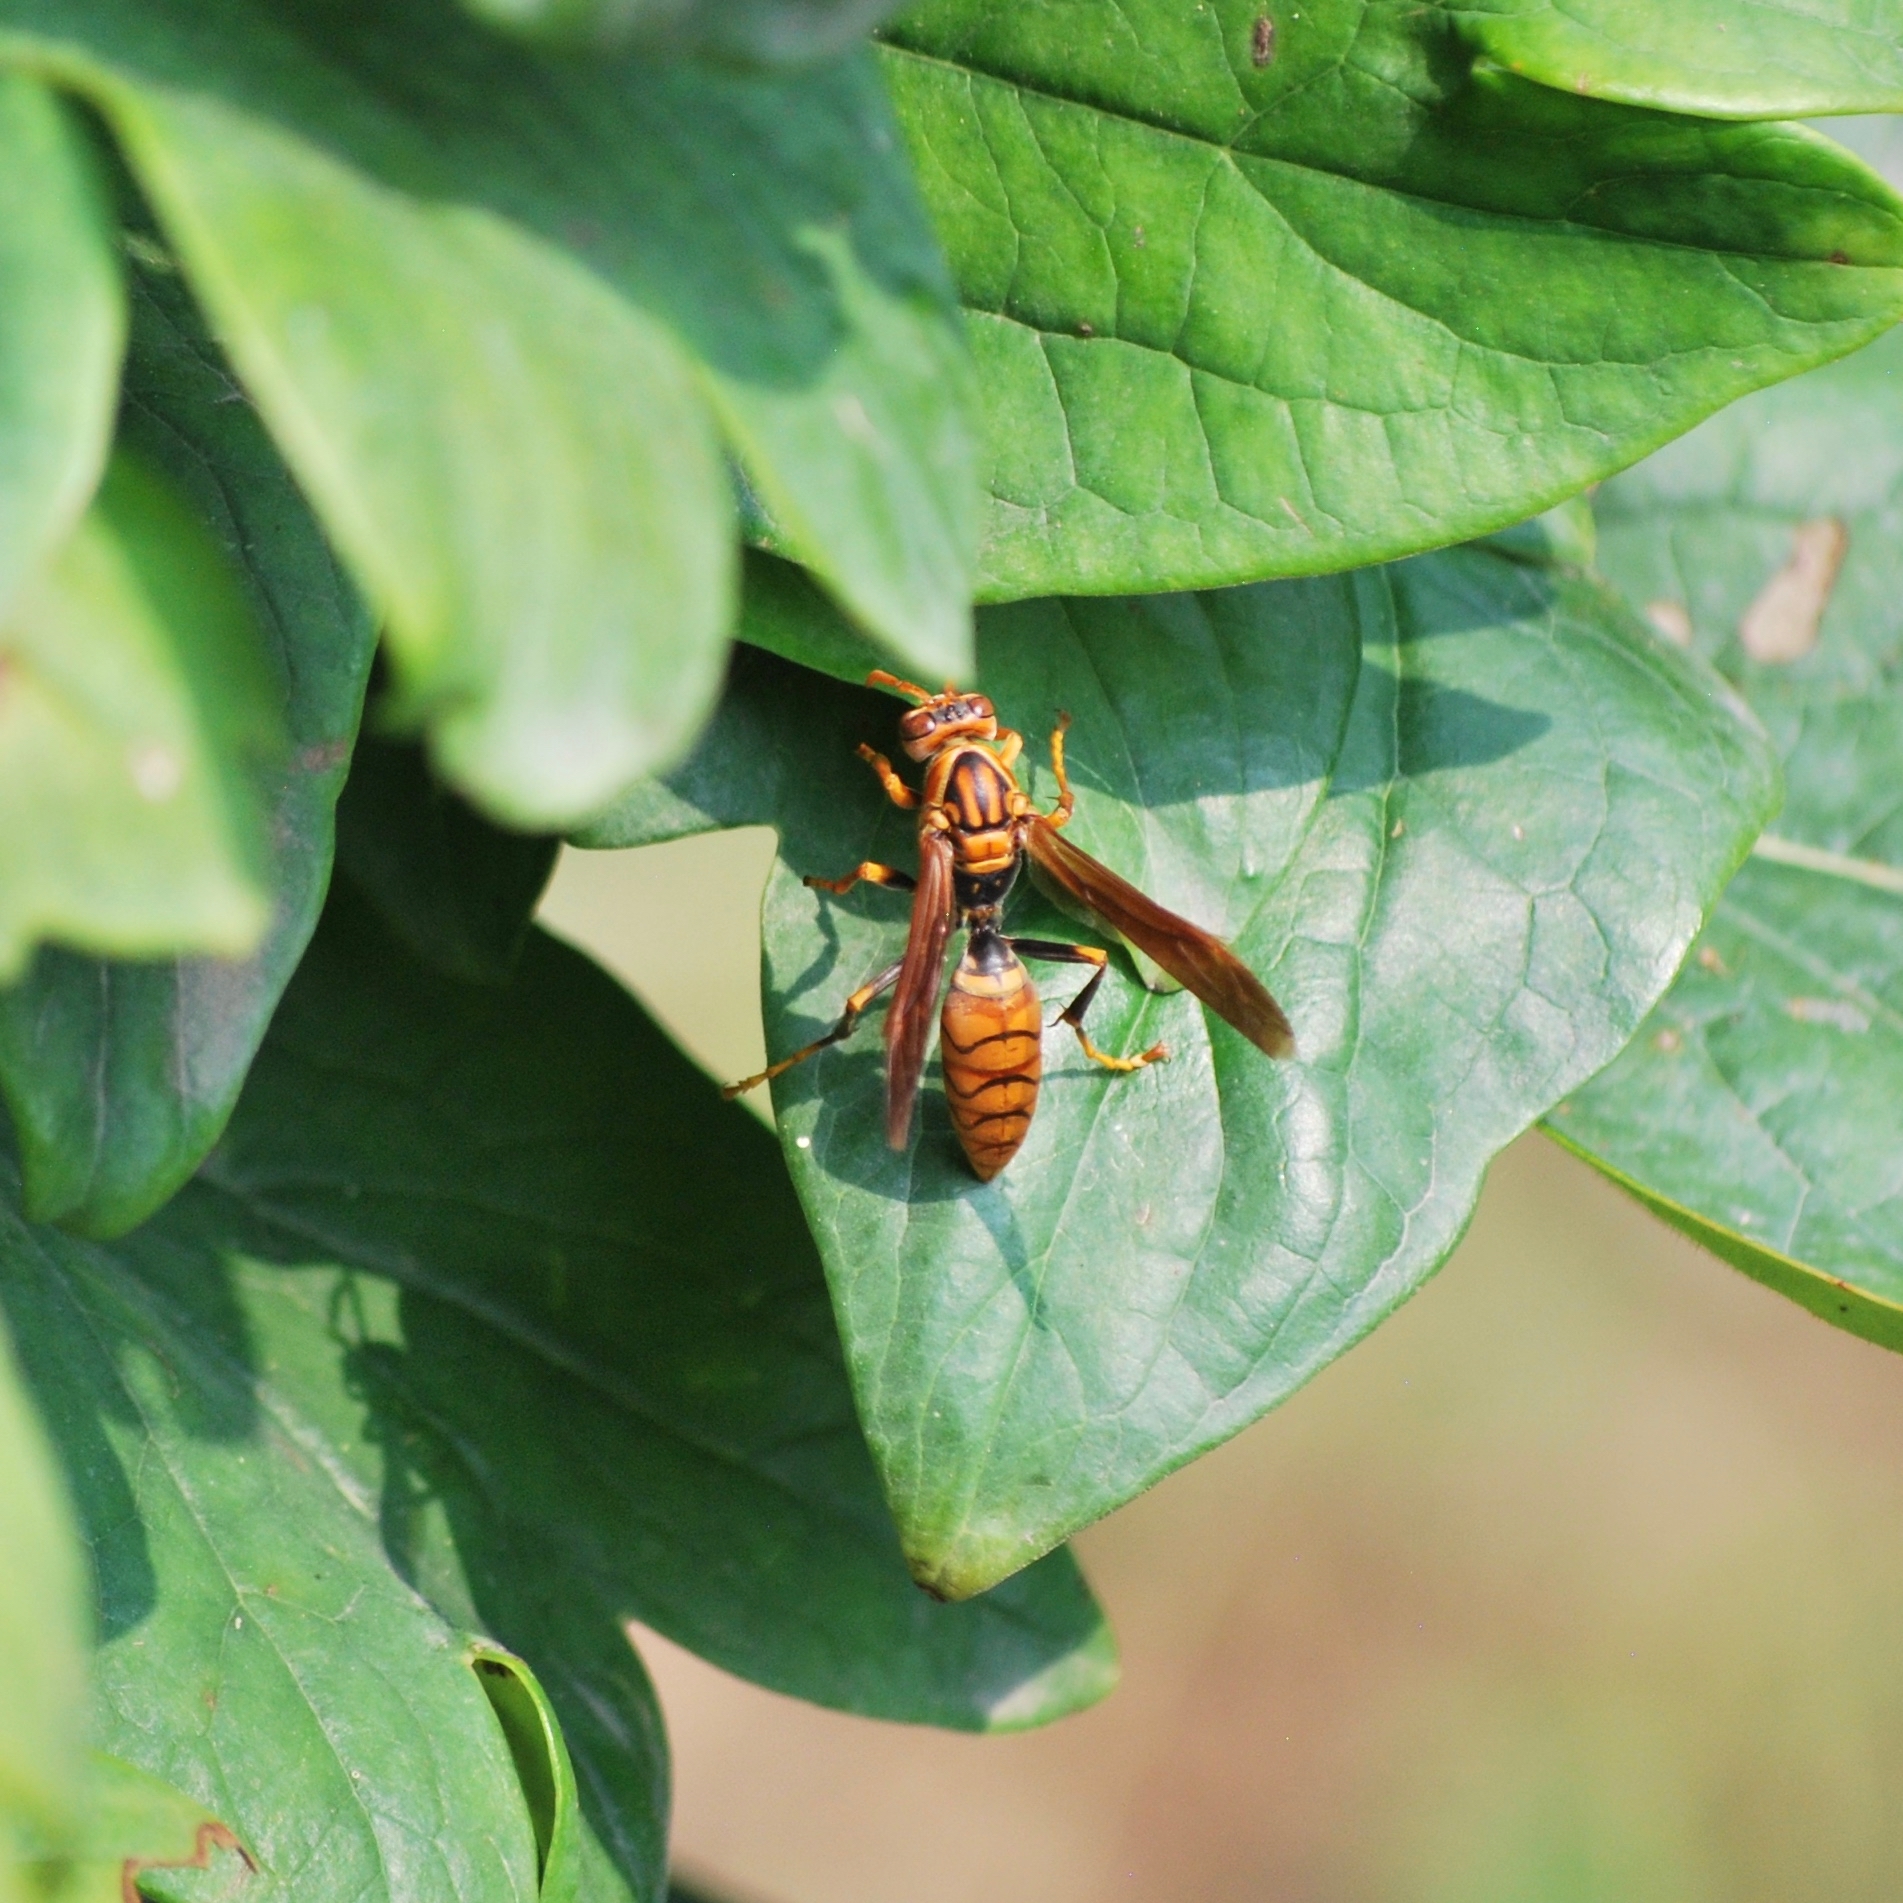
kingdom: Animalia
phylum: Arthropoda
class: Insecta
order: Hymenoptera
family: Eumenidae
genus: Polistes
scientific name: Polistes jokahamae
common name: Paper wasp
